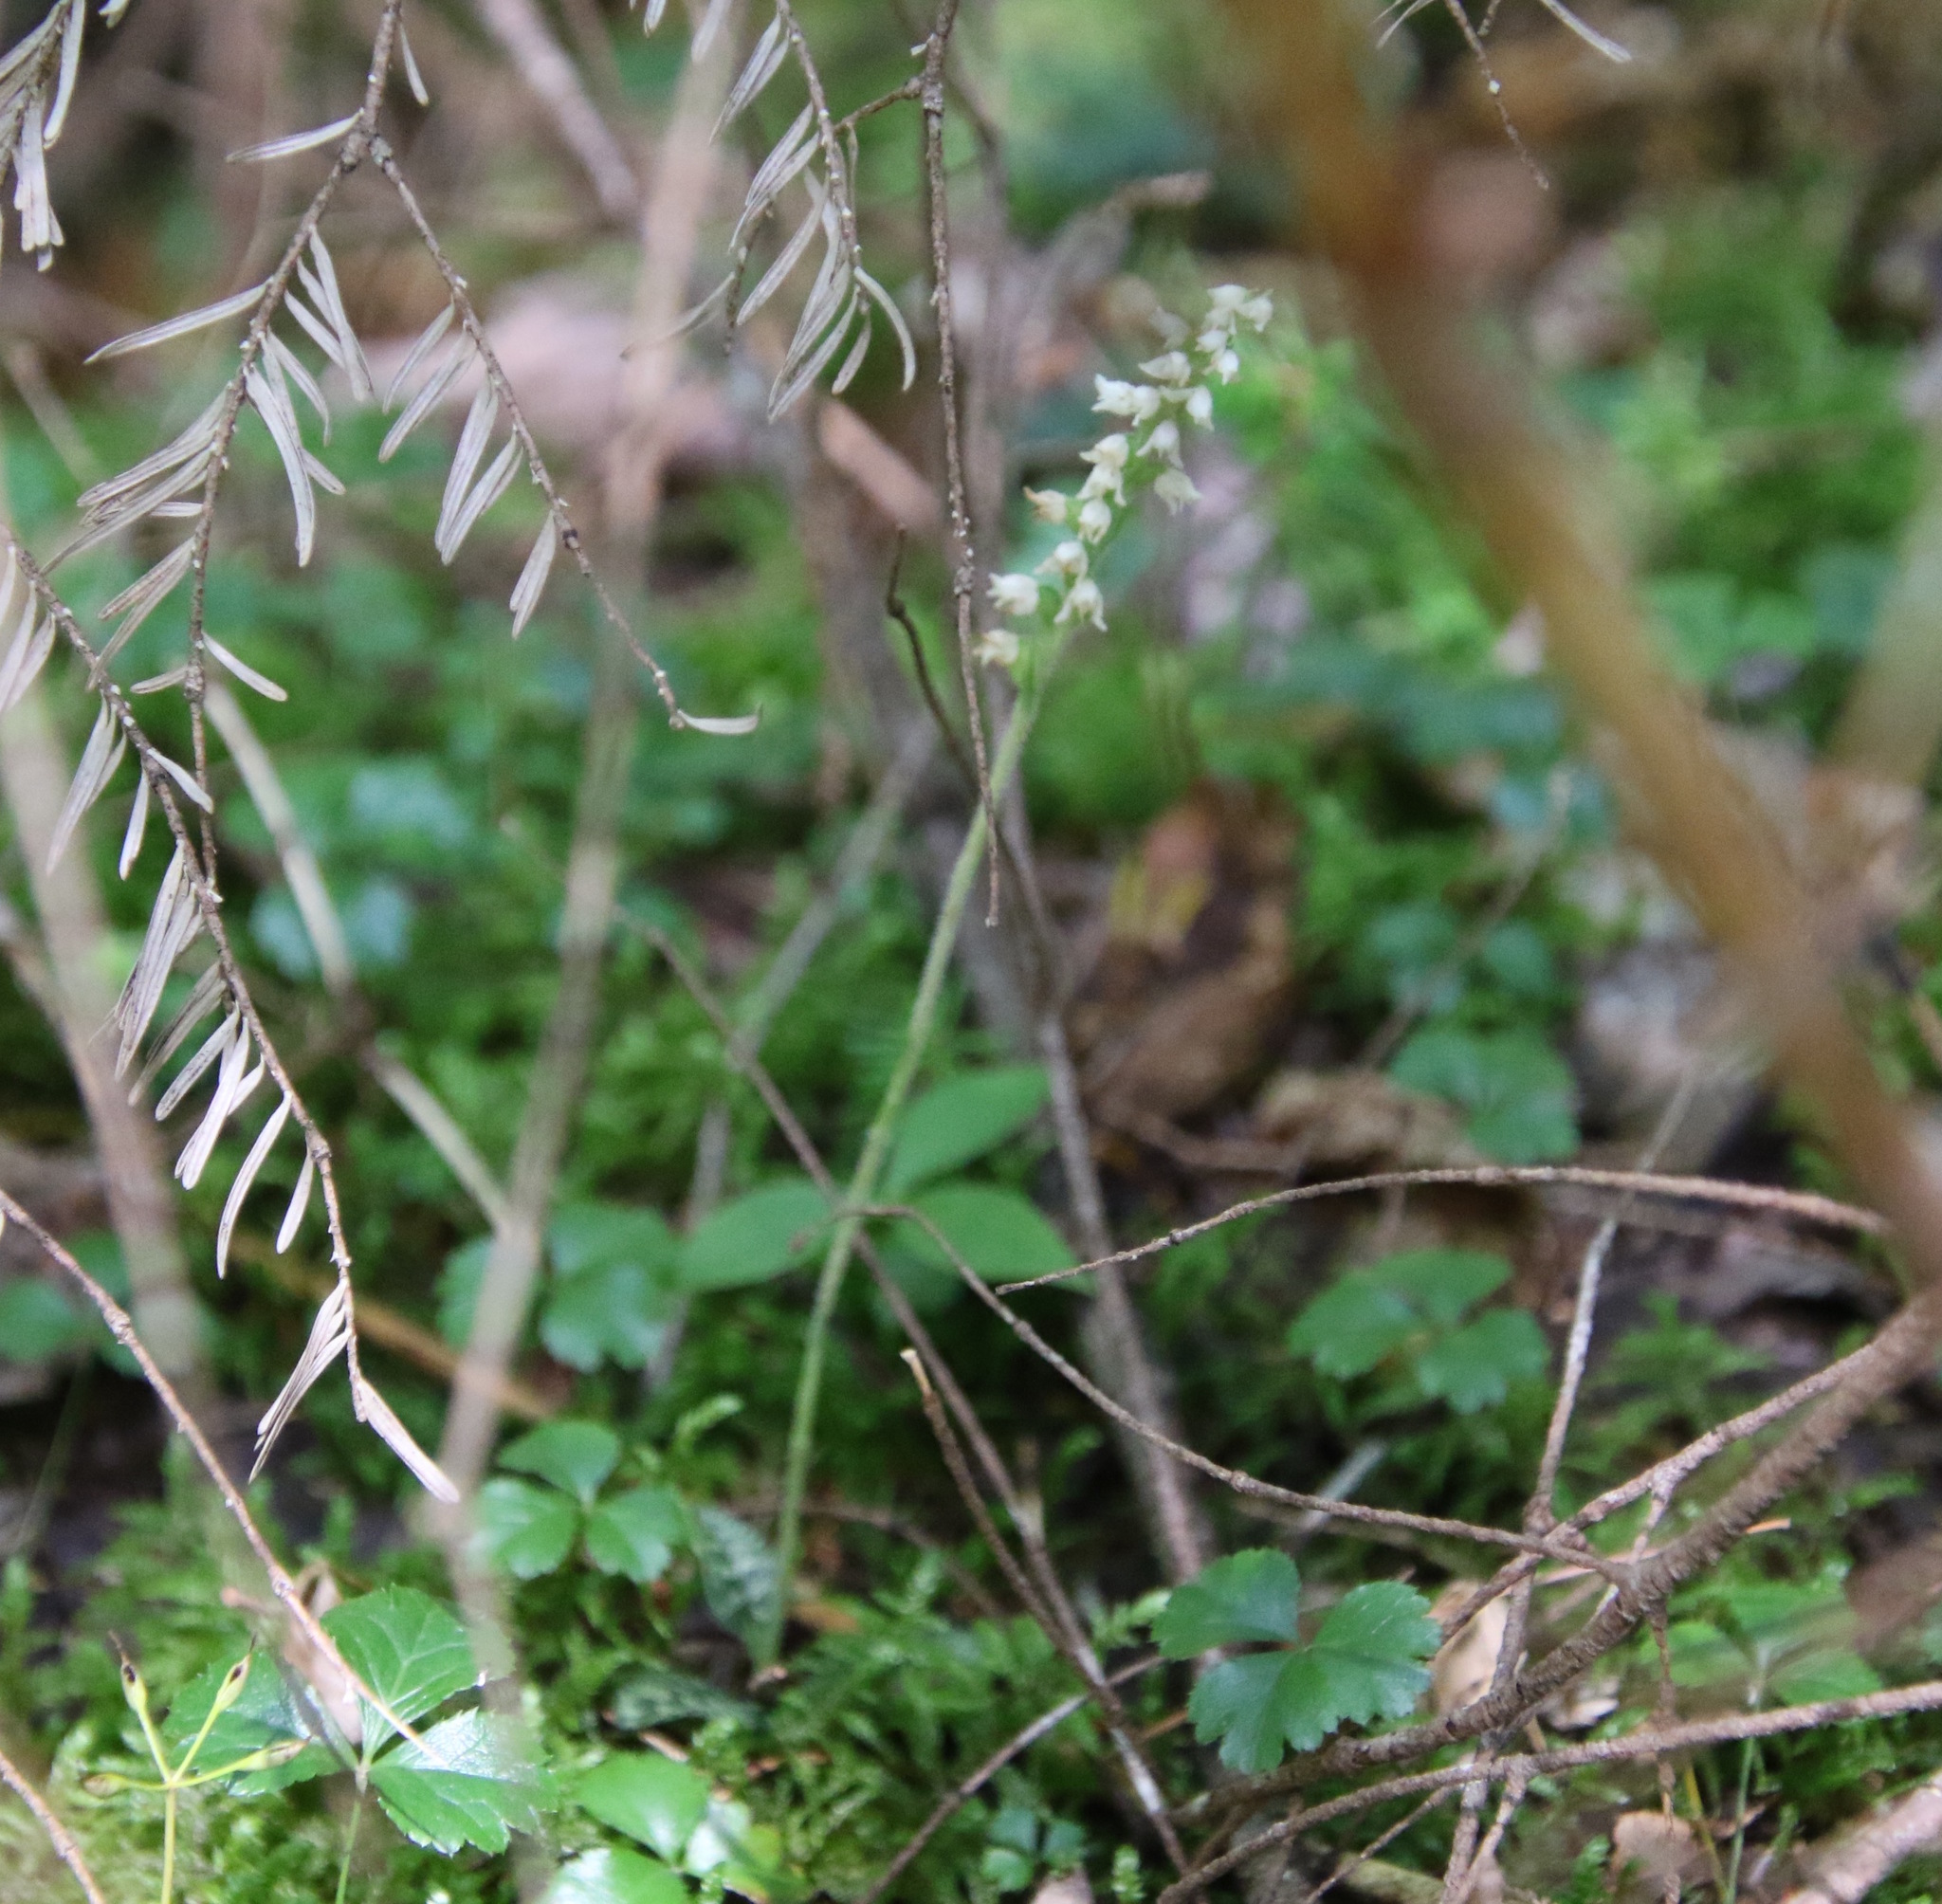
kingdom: Plantae
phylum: Tracheophyta
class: Liliopsida
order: Asparagales
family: Orchidaceae
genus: Goodyera
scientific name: Goodyera repens
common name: Creeping lady's-tresses
